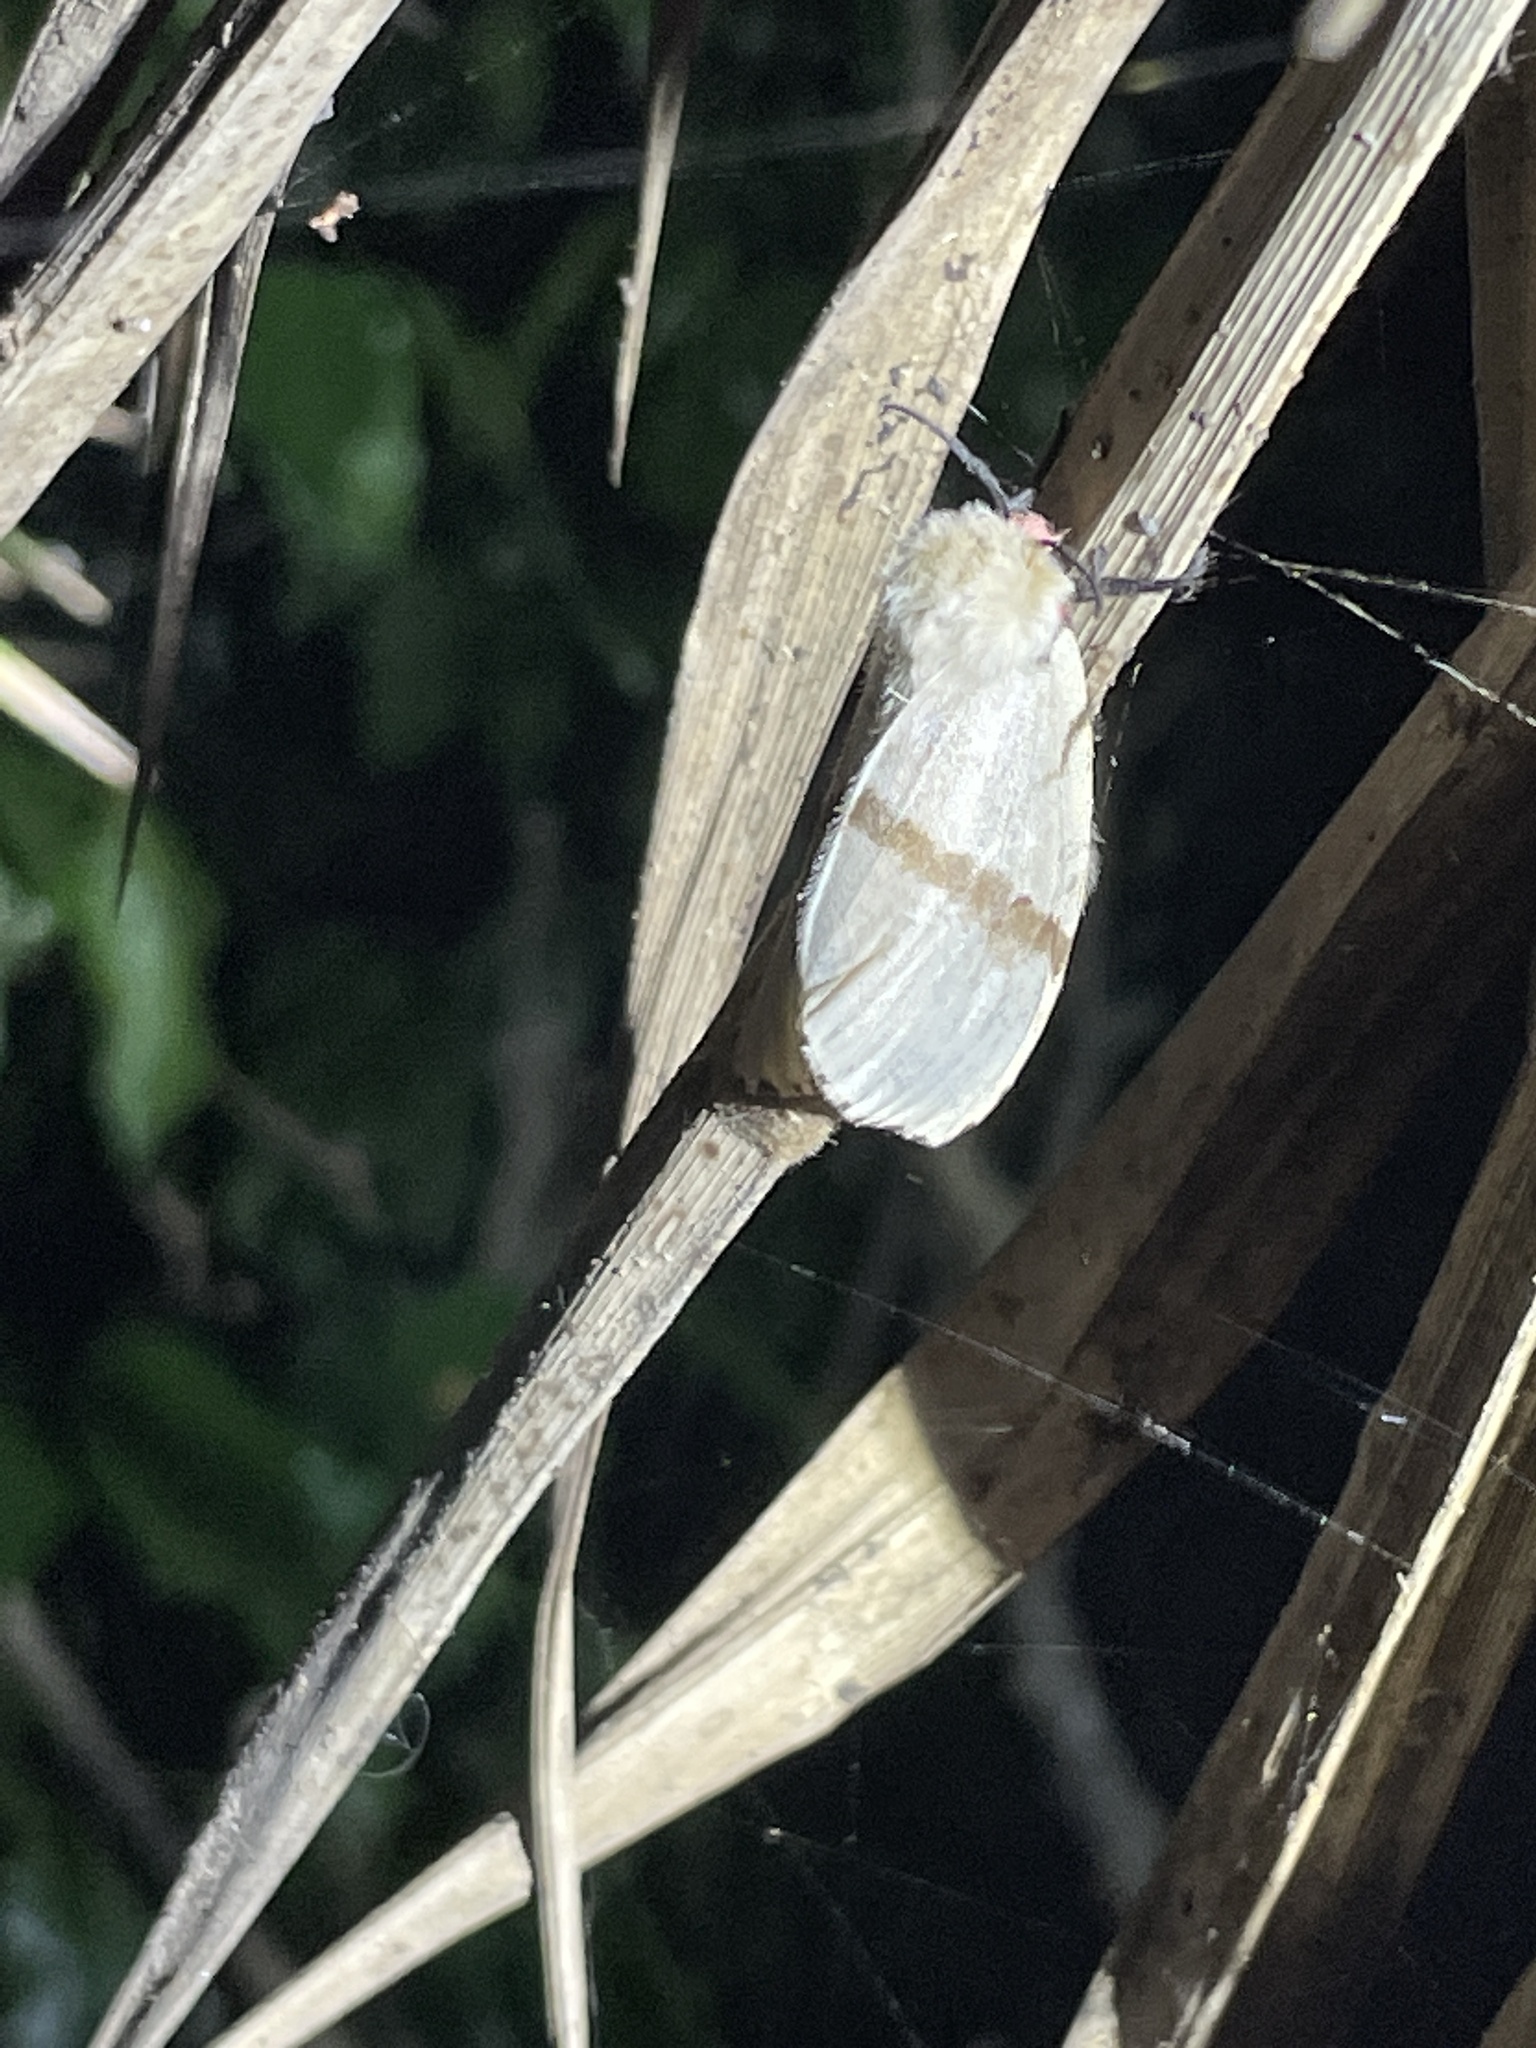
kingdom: Animalia
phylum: Arthropoda
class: Insecta
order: Lepidoptera
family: Erebidae
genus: Lymantria
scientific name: Lymantria xylina
